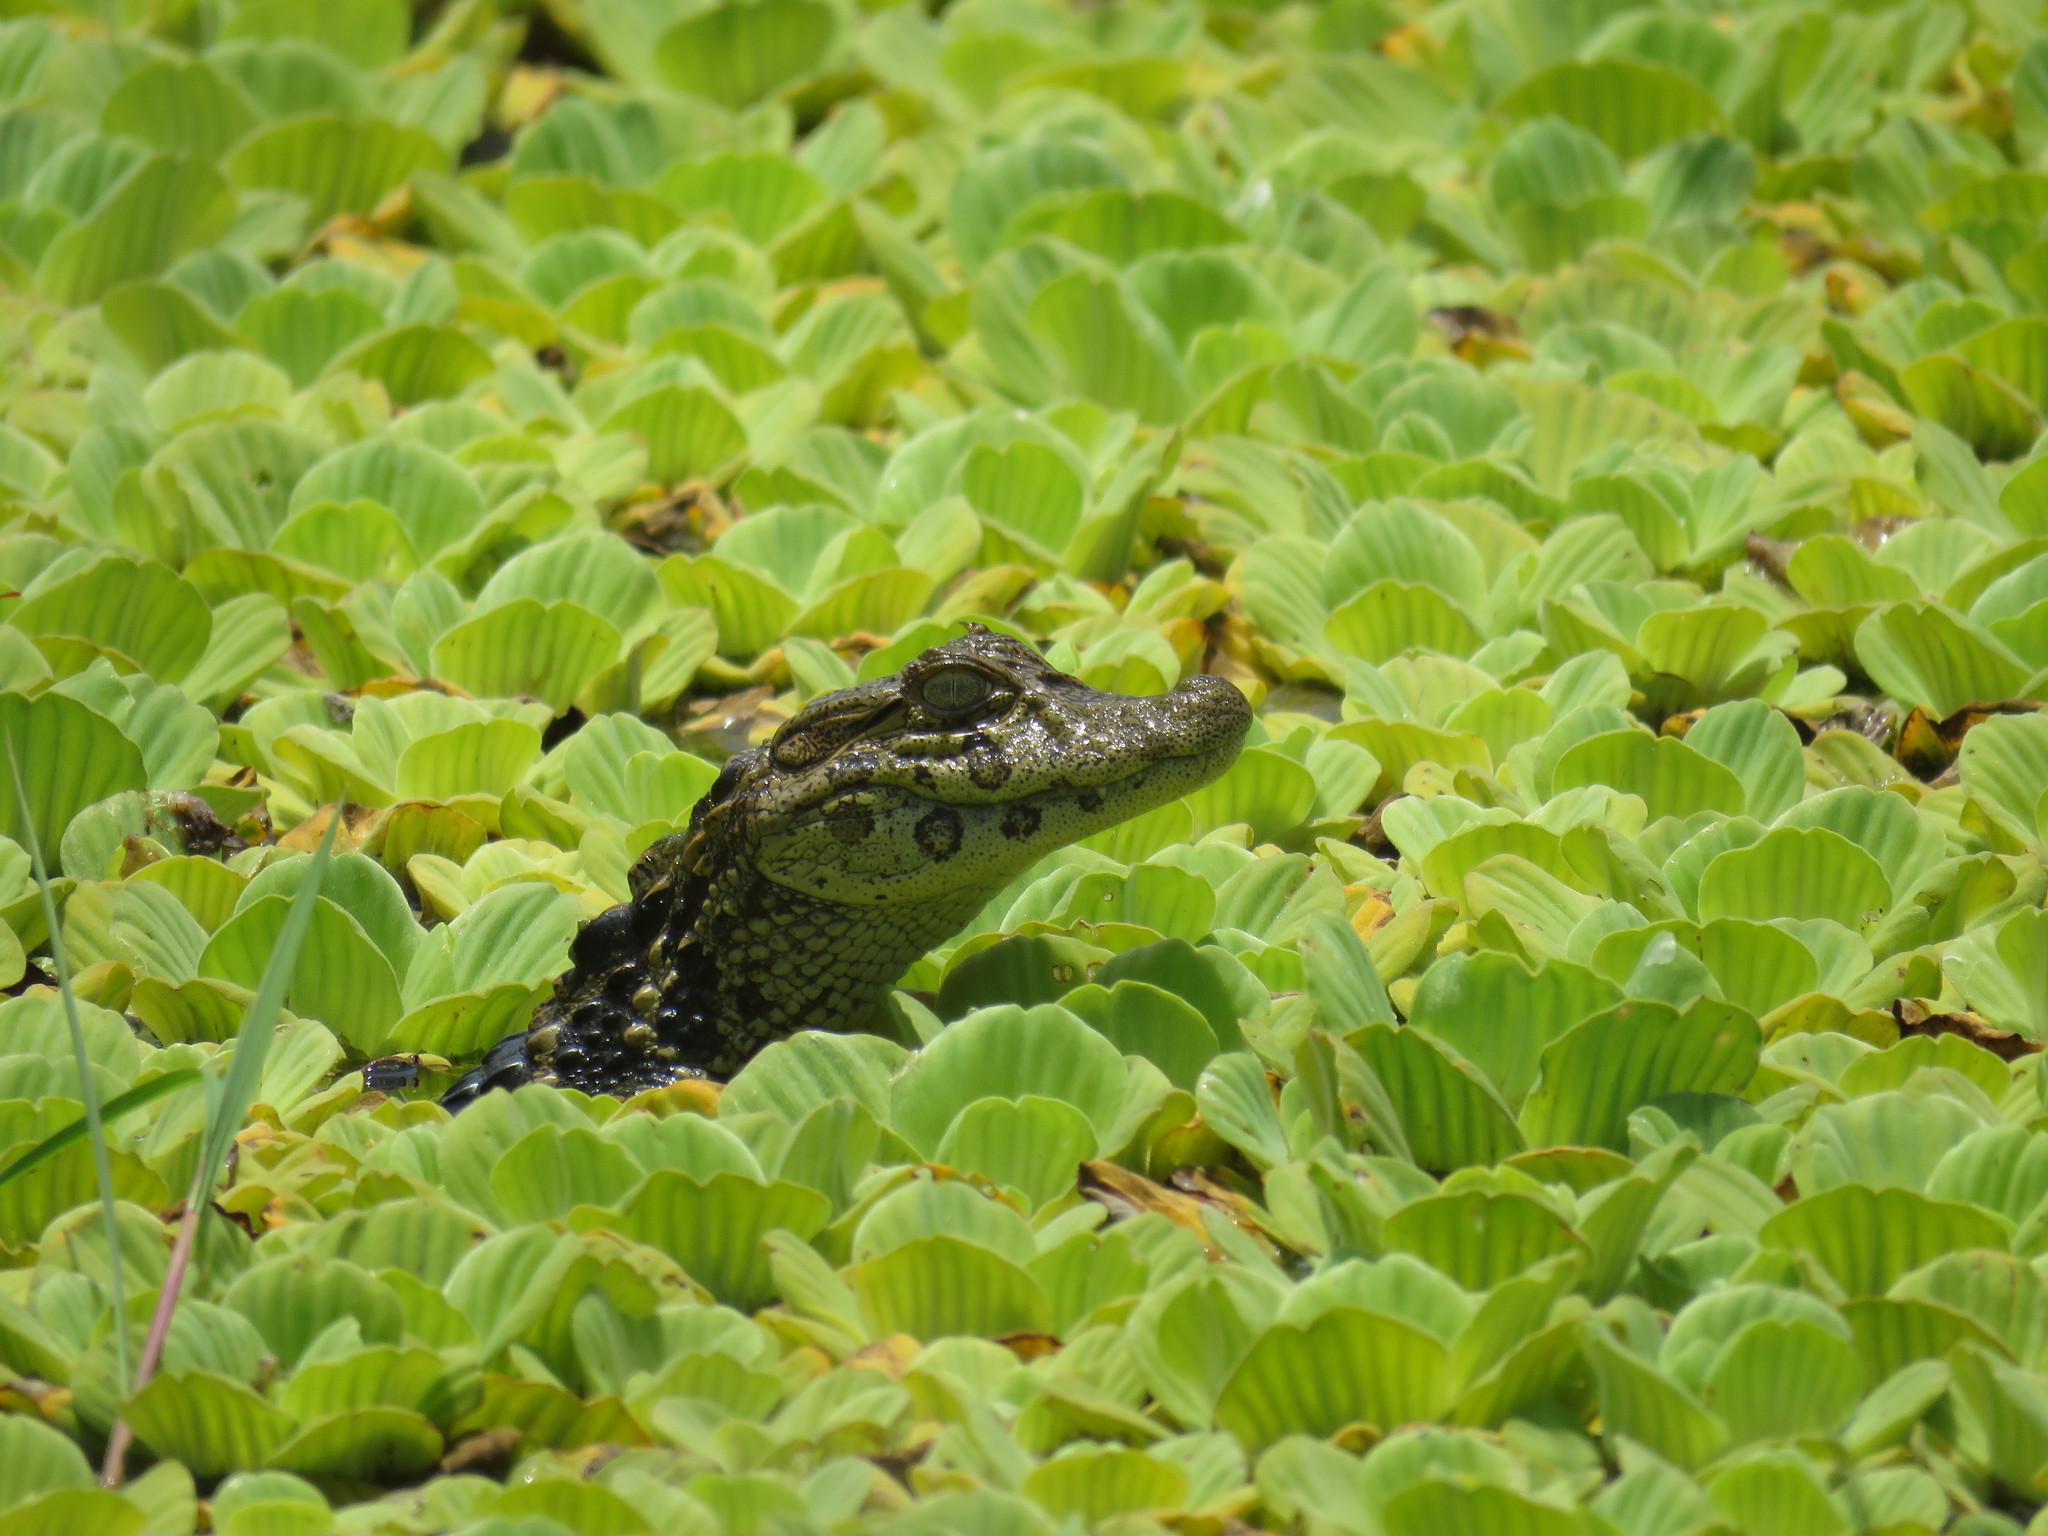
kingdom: Animalia
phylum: Chordata
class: Crocodylia
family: Alligatoridae
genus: Caiman
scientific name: Caiman latirostris
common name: Broad-snouted caiman
